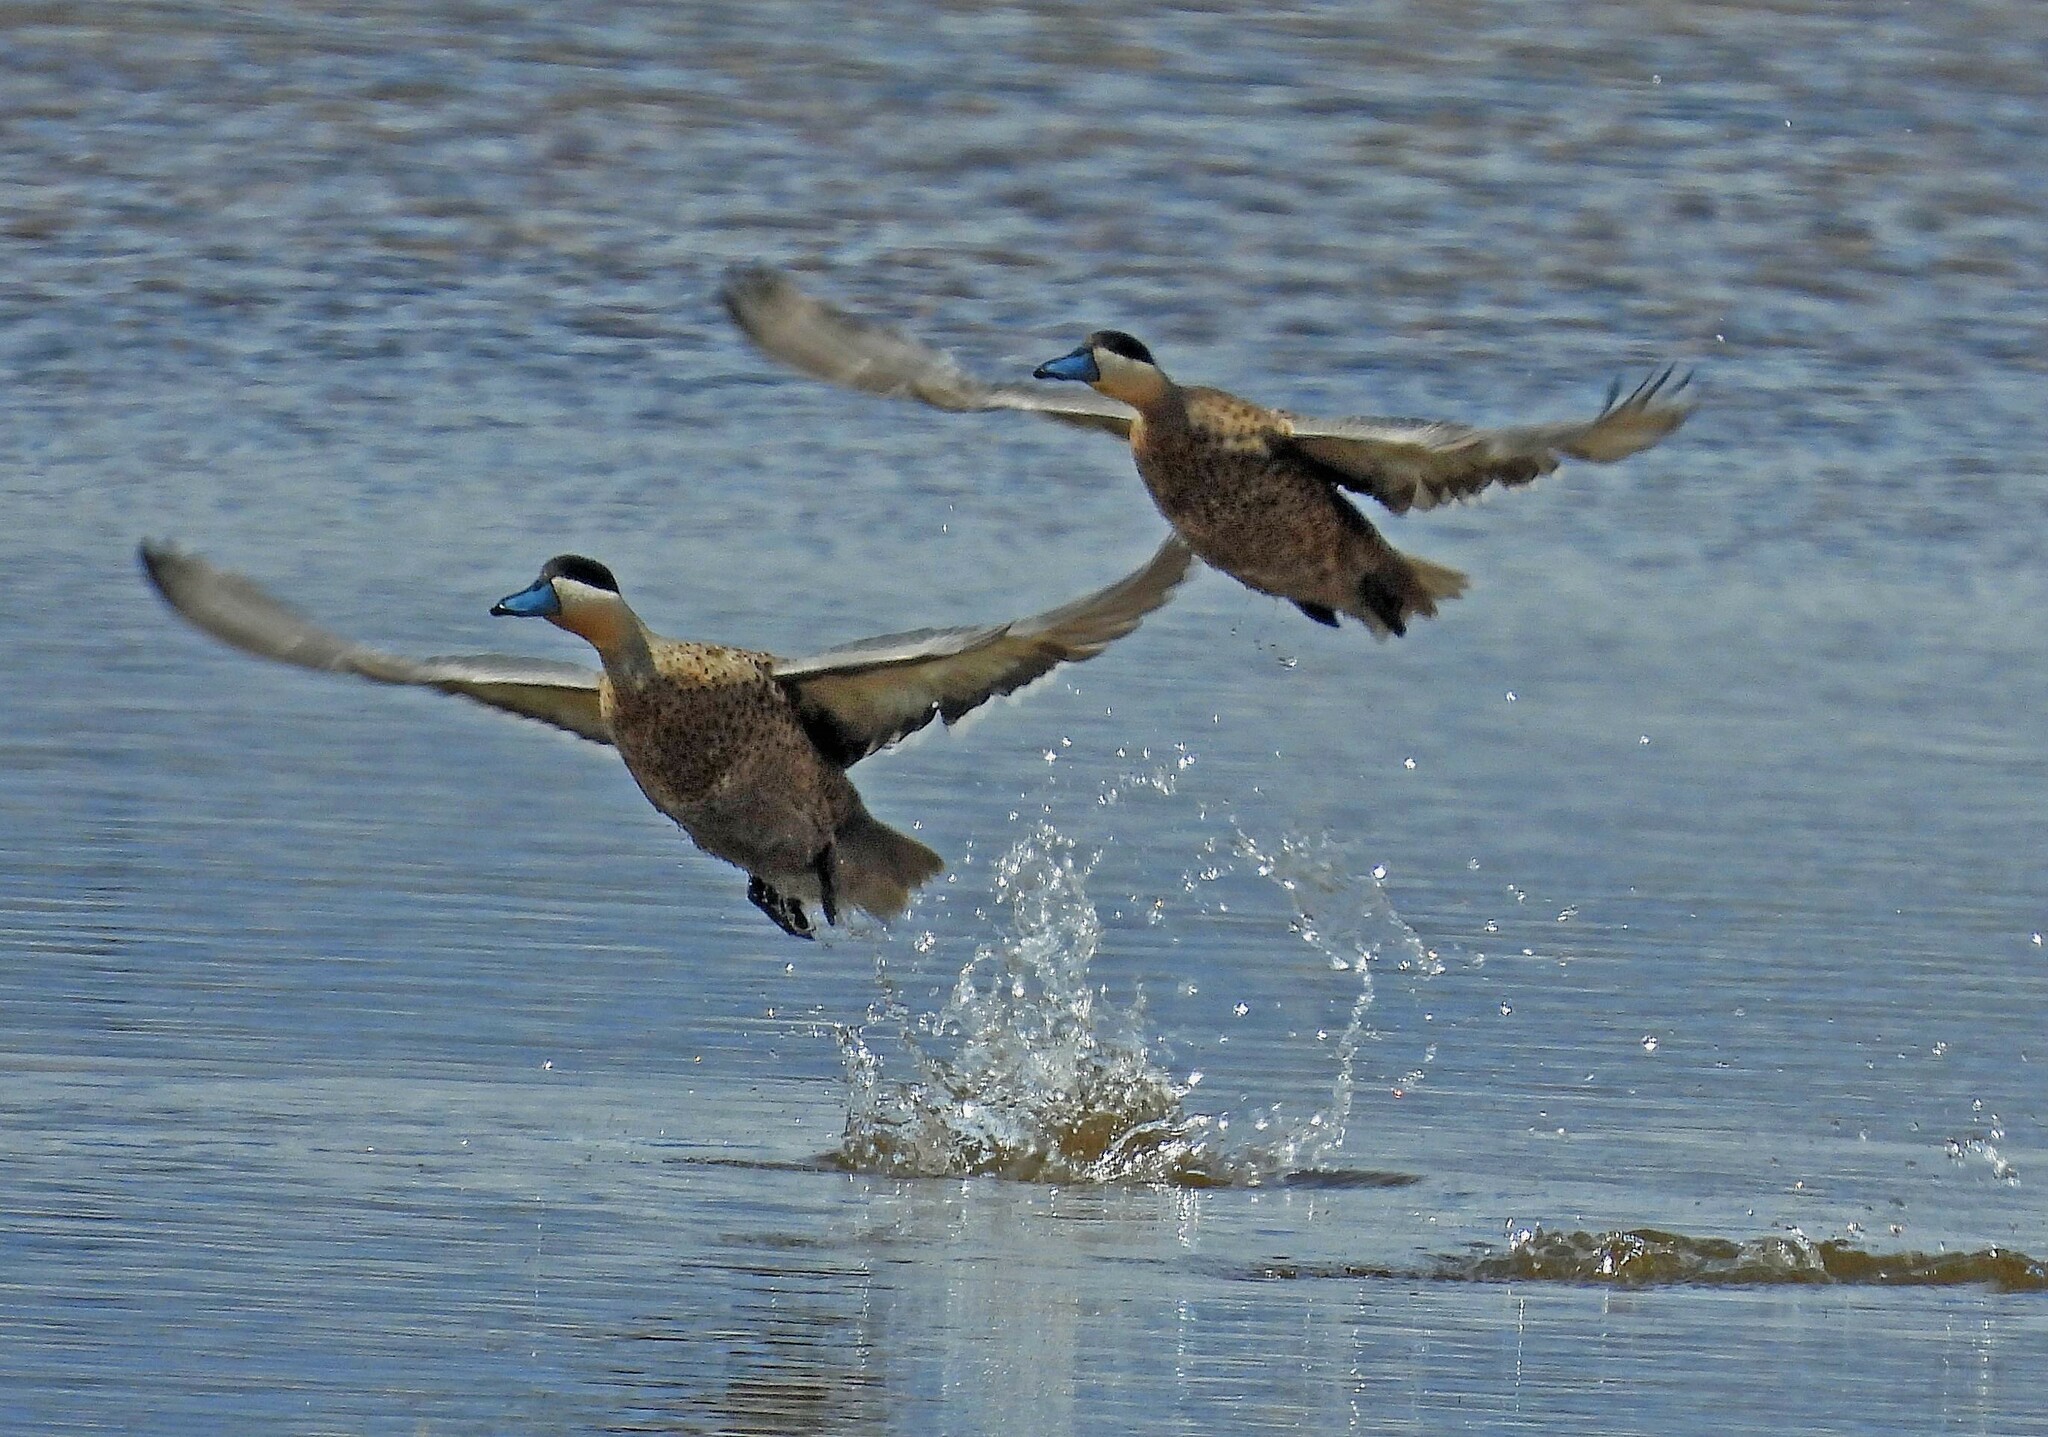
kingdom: Animalia
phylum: Chordata
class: Aves
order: Anseriformes
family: Anatidae
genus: Spatula
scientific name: Spatula puna
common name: Puna teal
